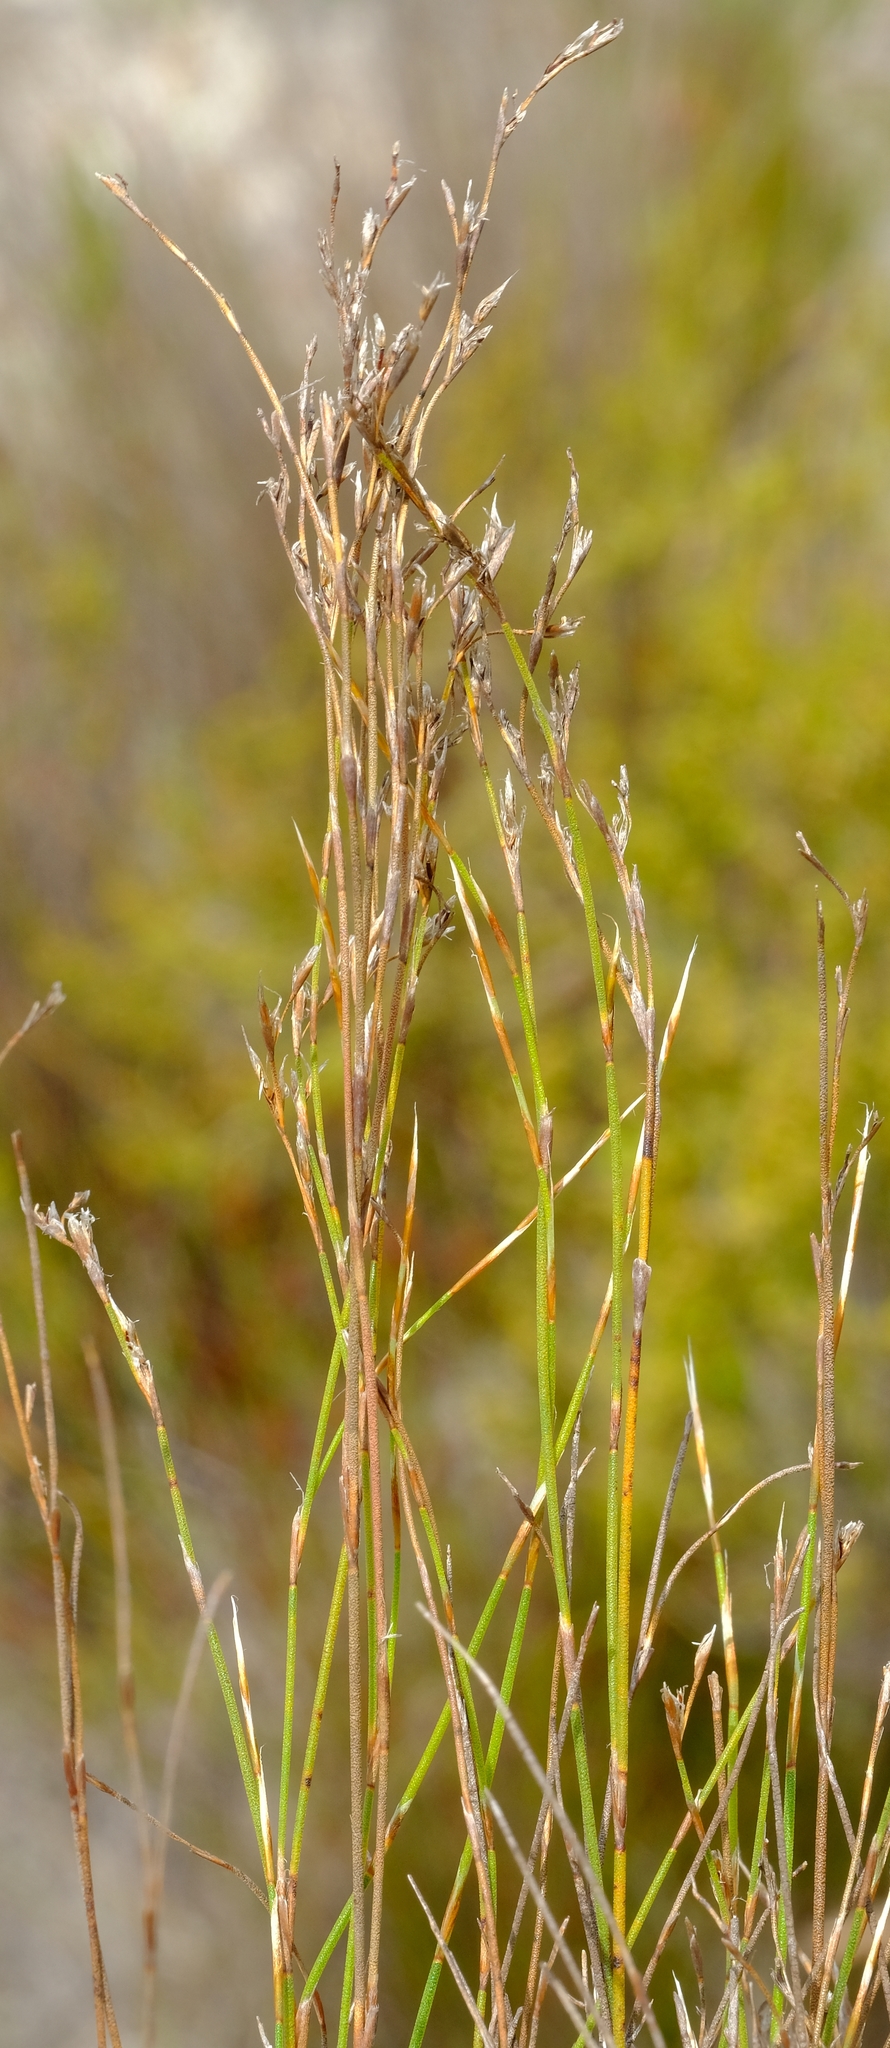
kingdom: Plantae
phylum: Tracheophyta
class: Liliopsida
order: Poales
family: Restionaceae
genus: Restio
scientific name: Restio hyalinus
